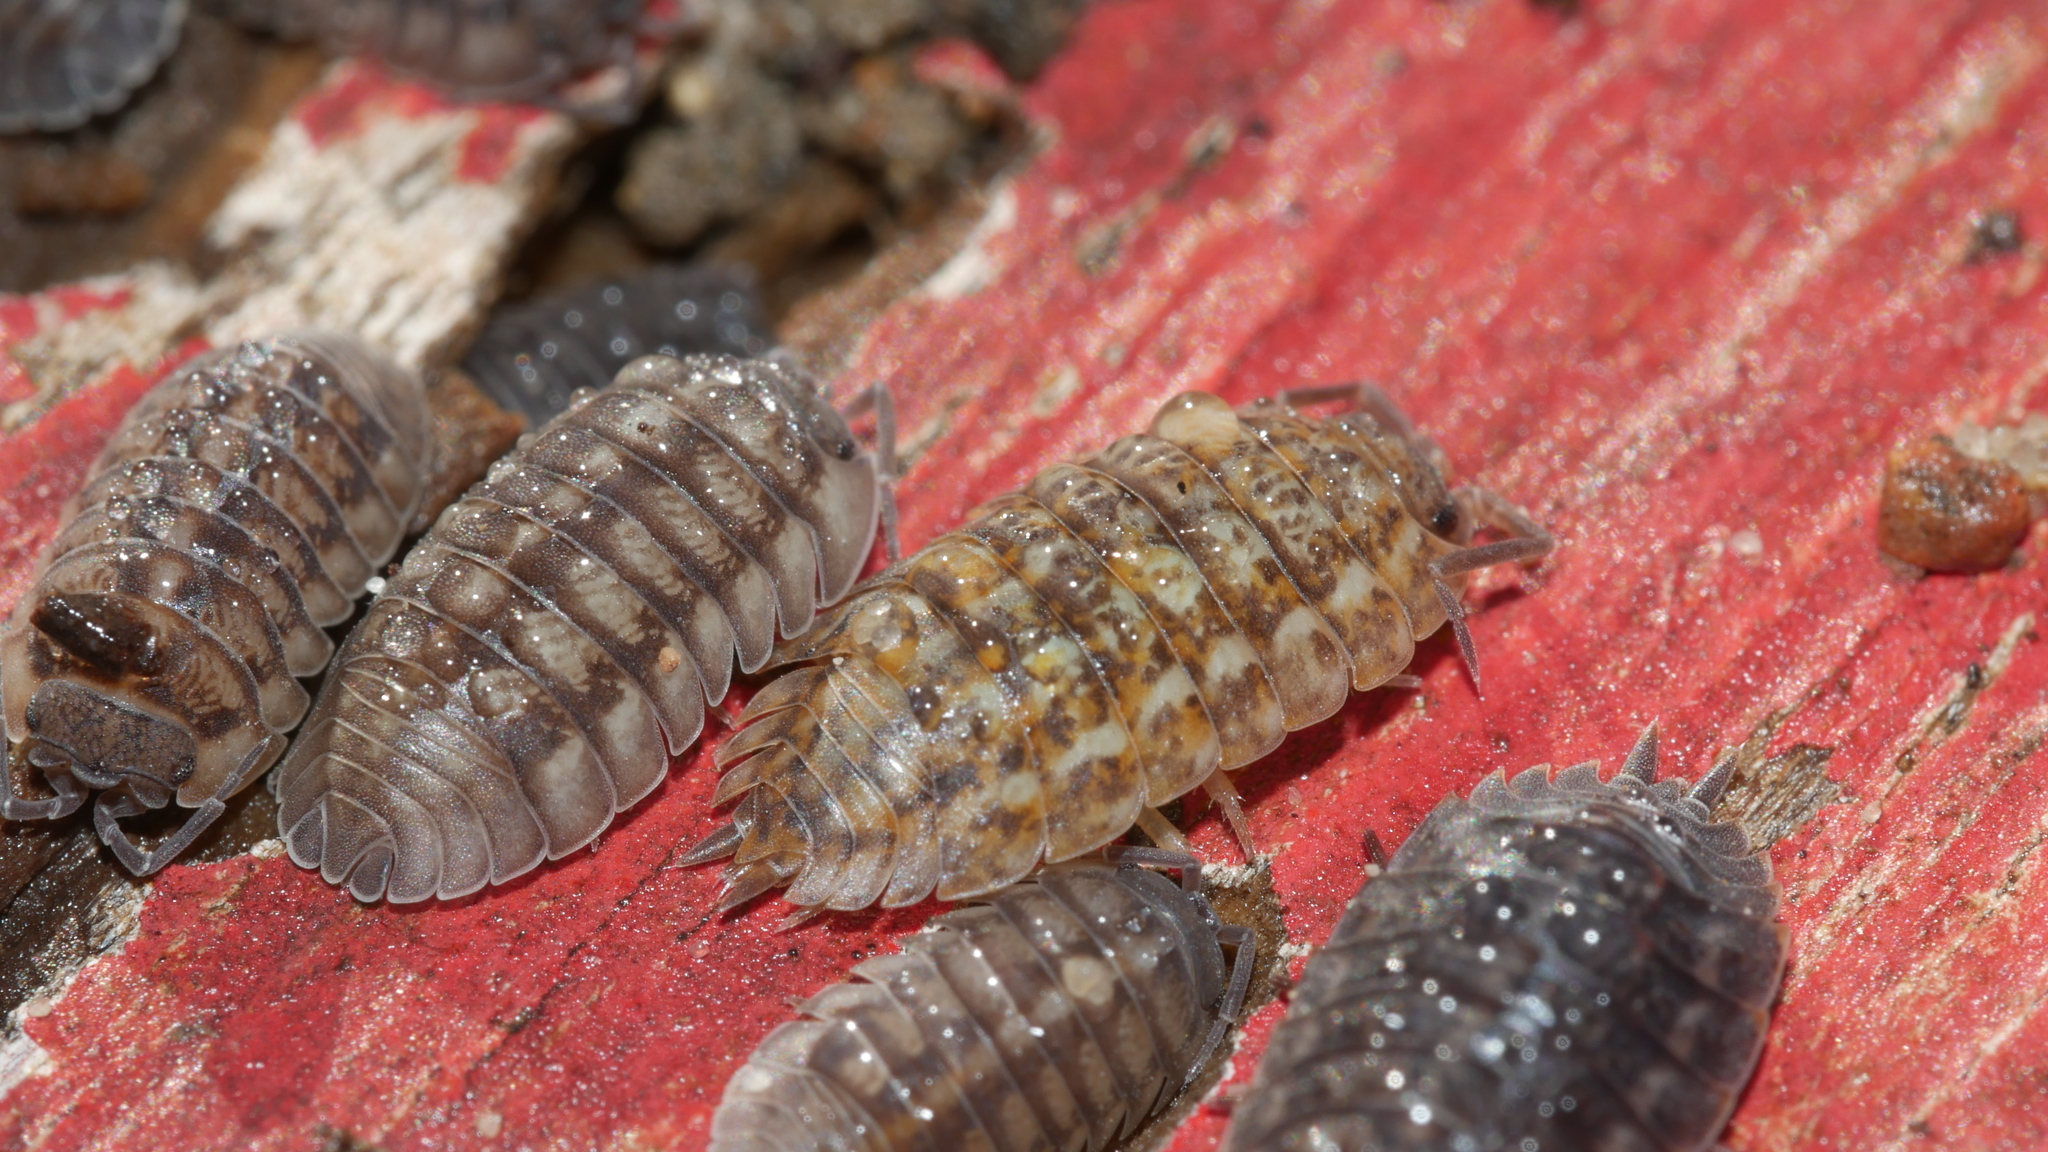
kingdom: Animalia
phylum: Arthropoda
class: Malacostraca
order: Isopoda
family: Trachelipodidae
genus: Trachelipus
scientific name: Trachelipus rathkii
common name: Isopod
